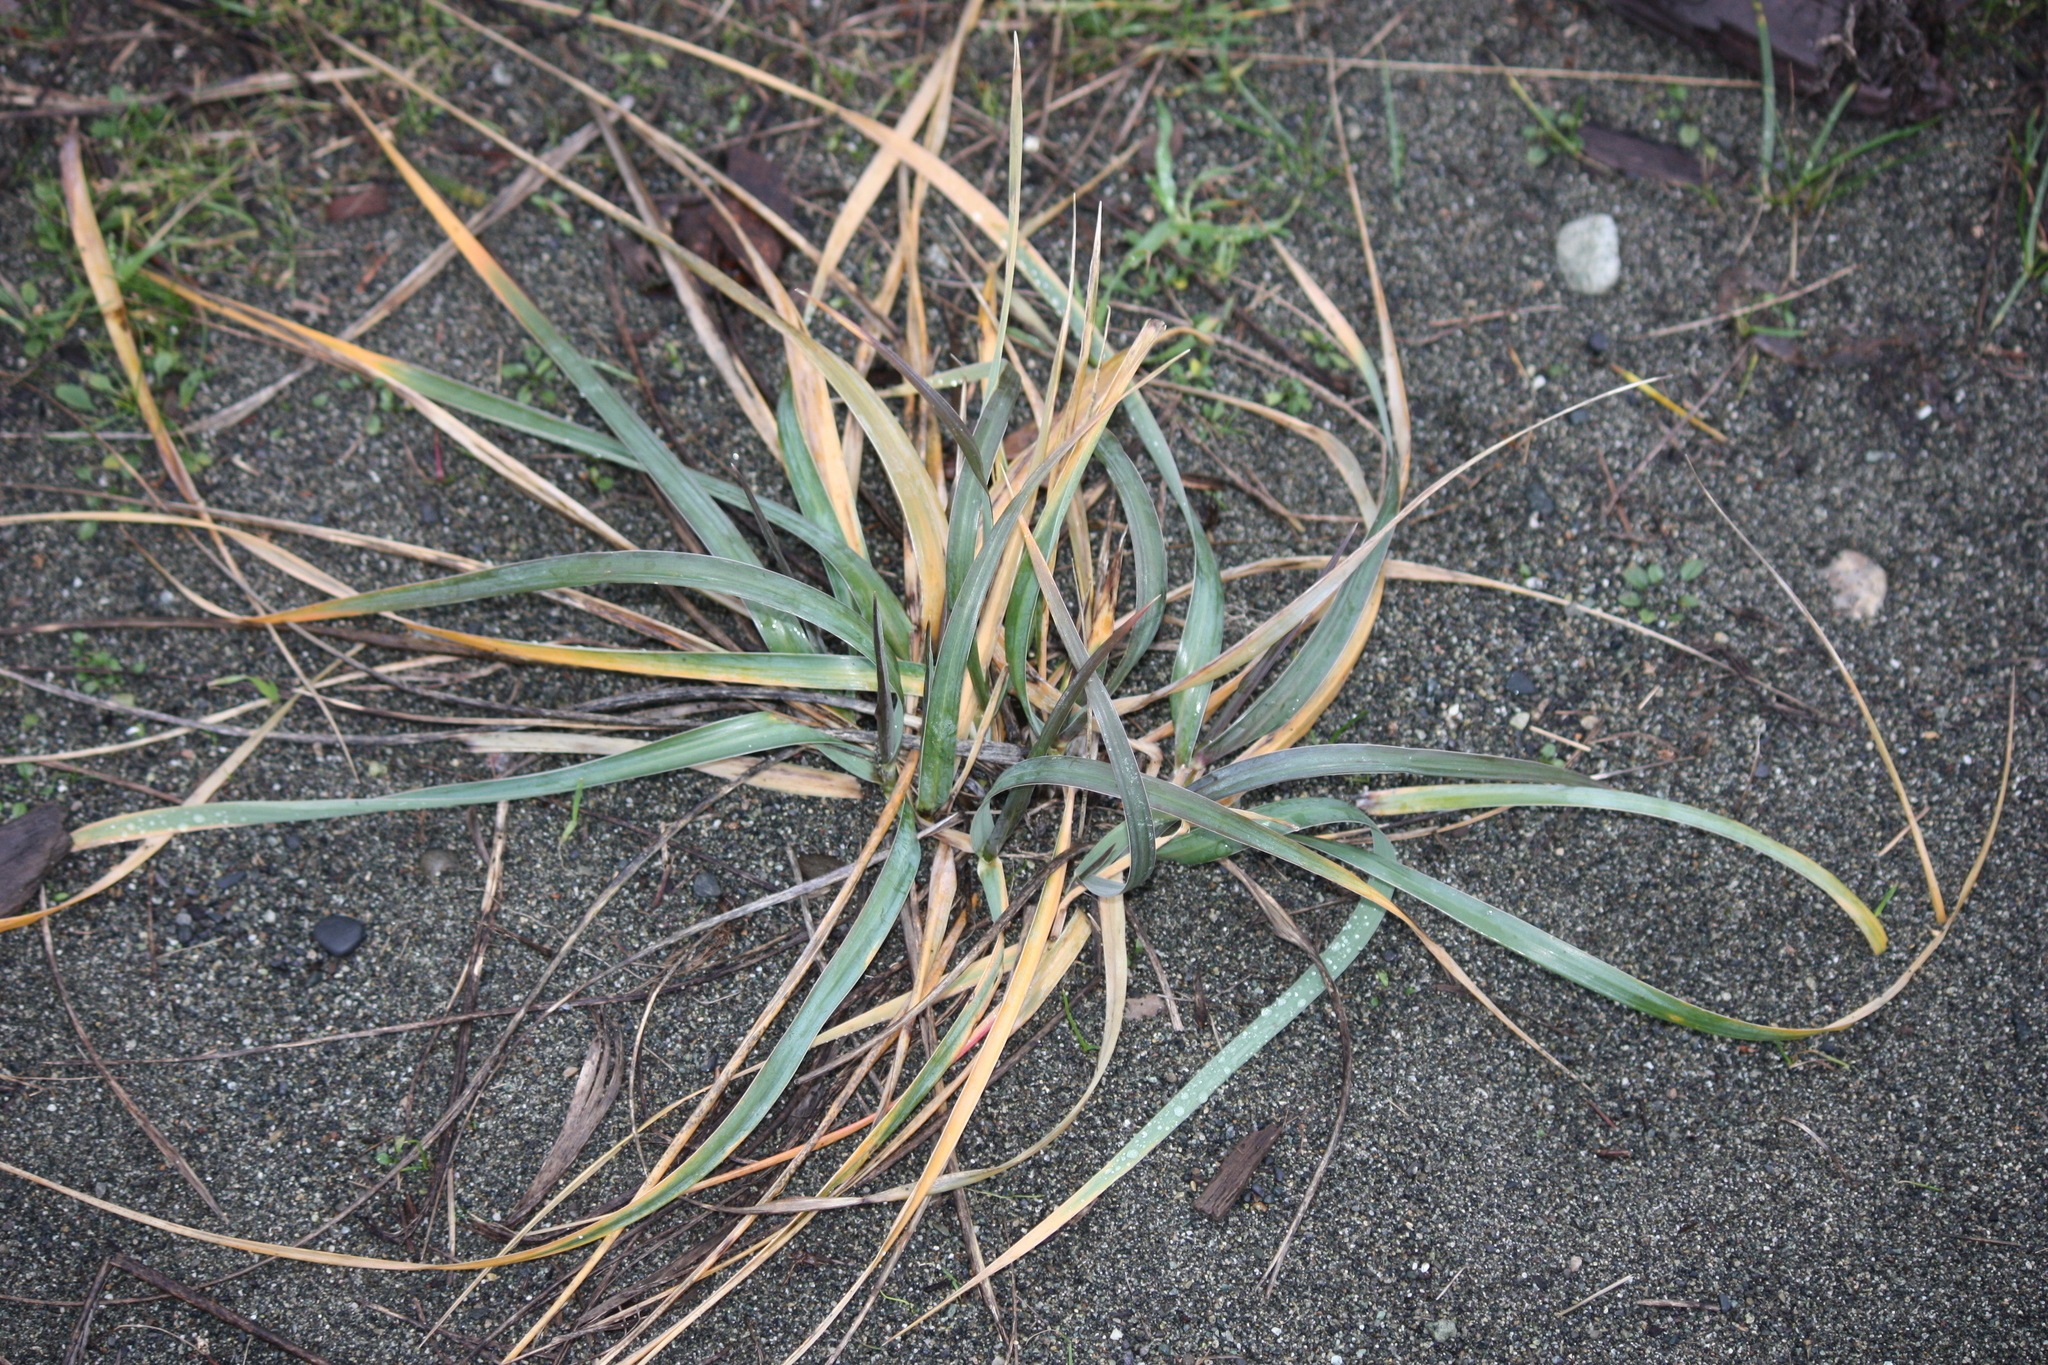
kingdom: Plantae
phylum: Tracheophyta
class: Liliopsida
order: Poales
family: Poaceae
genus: Leymus
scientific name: Leymus mollis
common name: American dune grass
